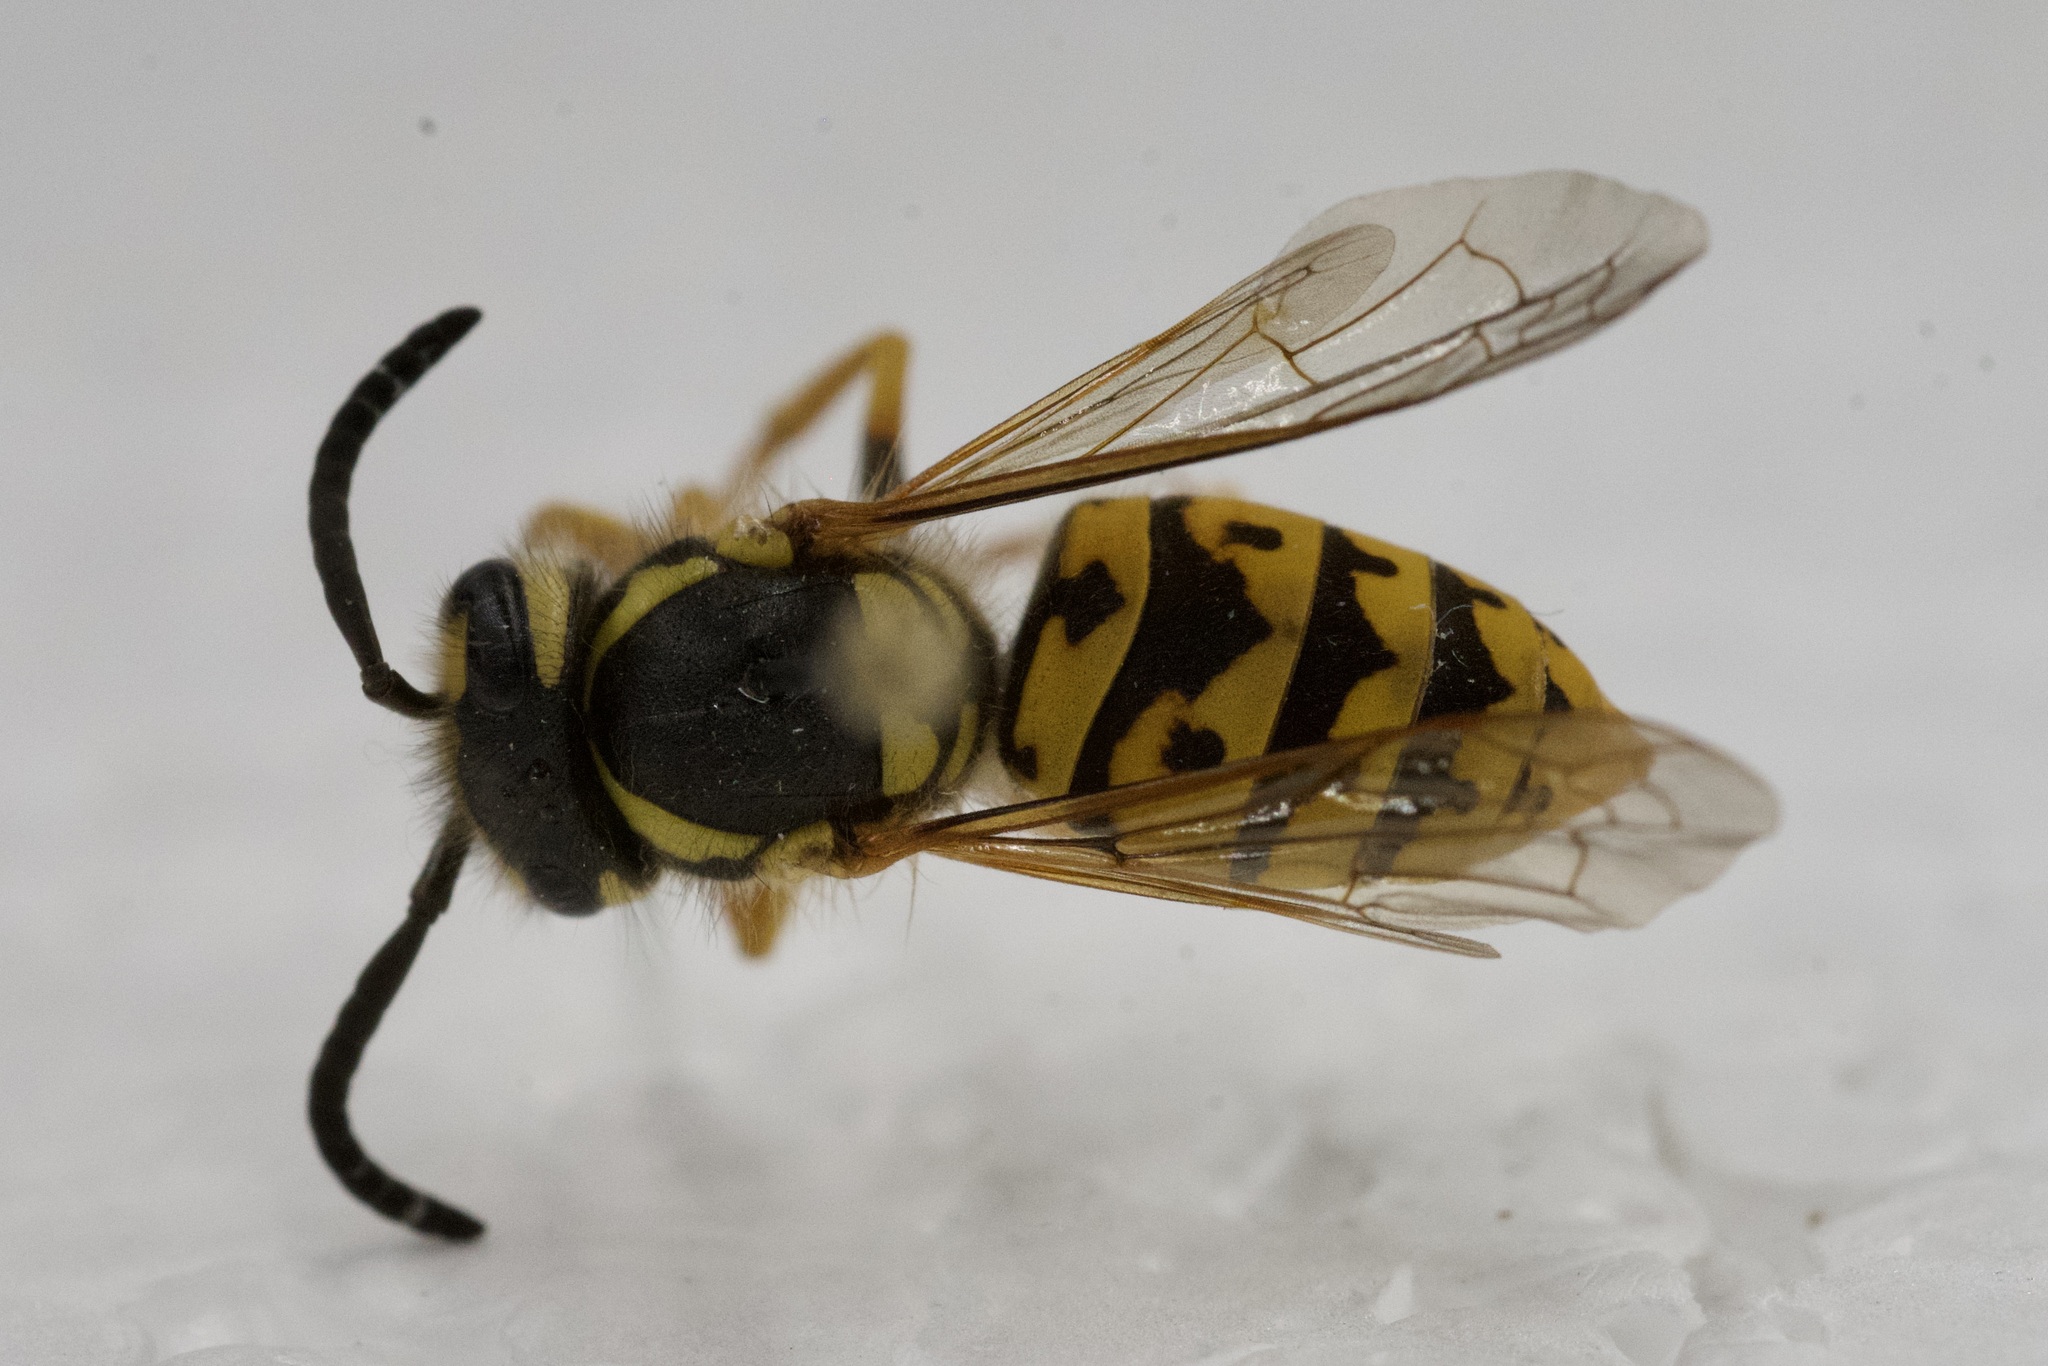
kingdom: Animalia
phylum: Arthropoda
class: Insecta
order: Hymenoptera
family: Vespidae
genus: Vespula
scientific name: Vespula germanica
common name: German wasp
